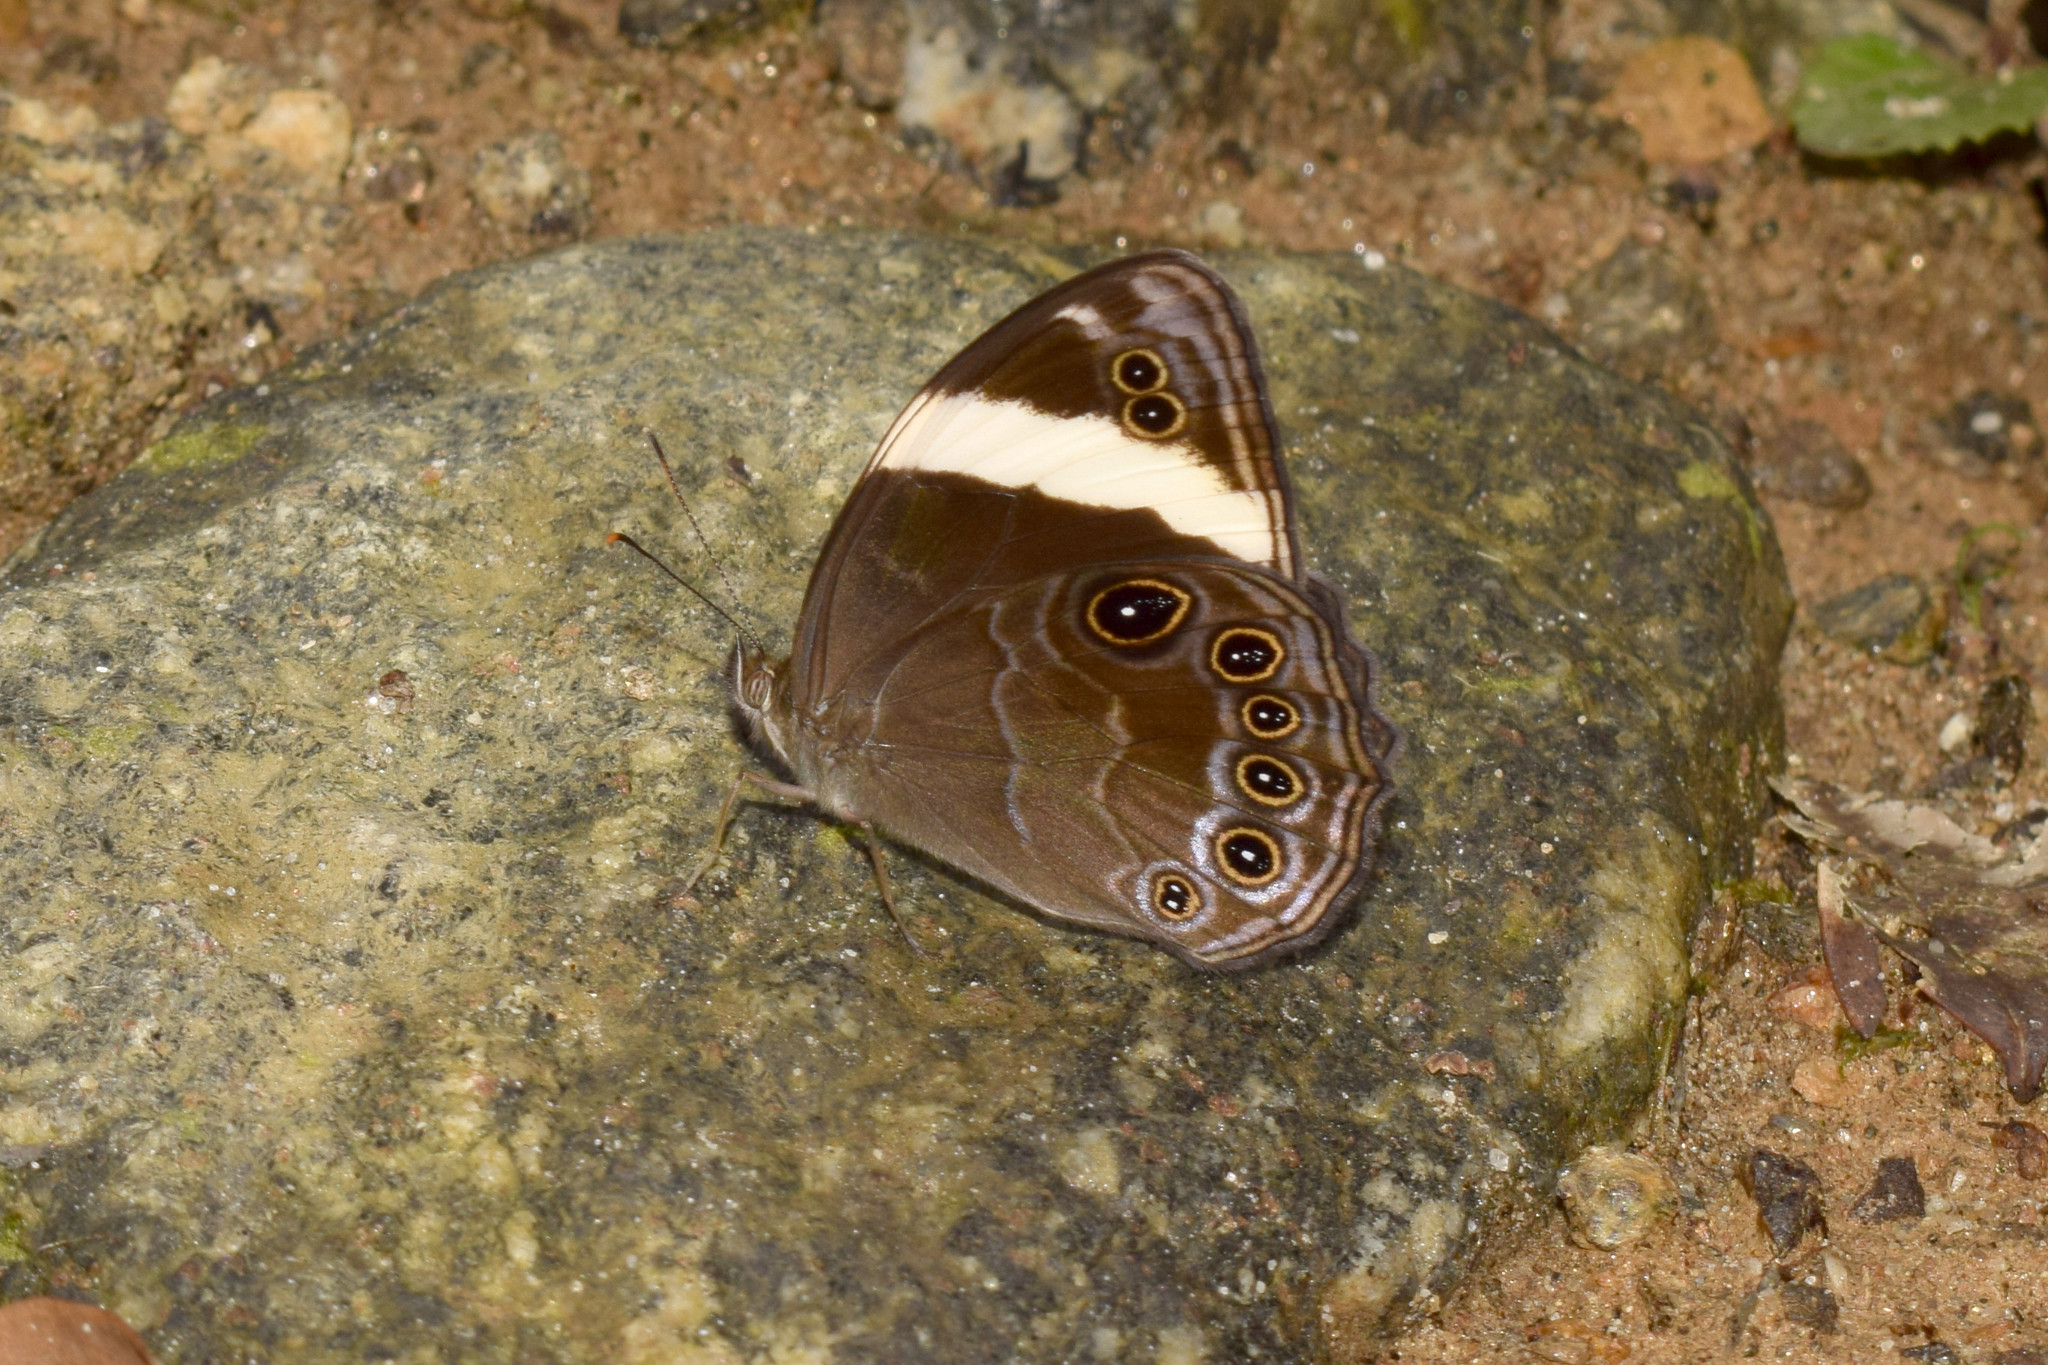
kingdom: Animalia
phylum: Arthropoda
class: Insecta
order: Lepidoptera
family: Nymphalidae
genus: Lethe
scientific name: Lethe verma
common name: Straight-banded treebrown
